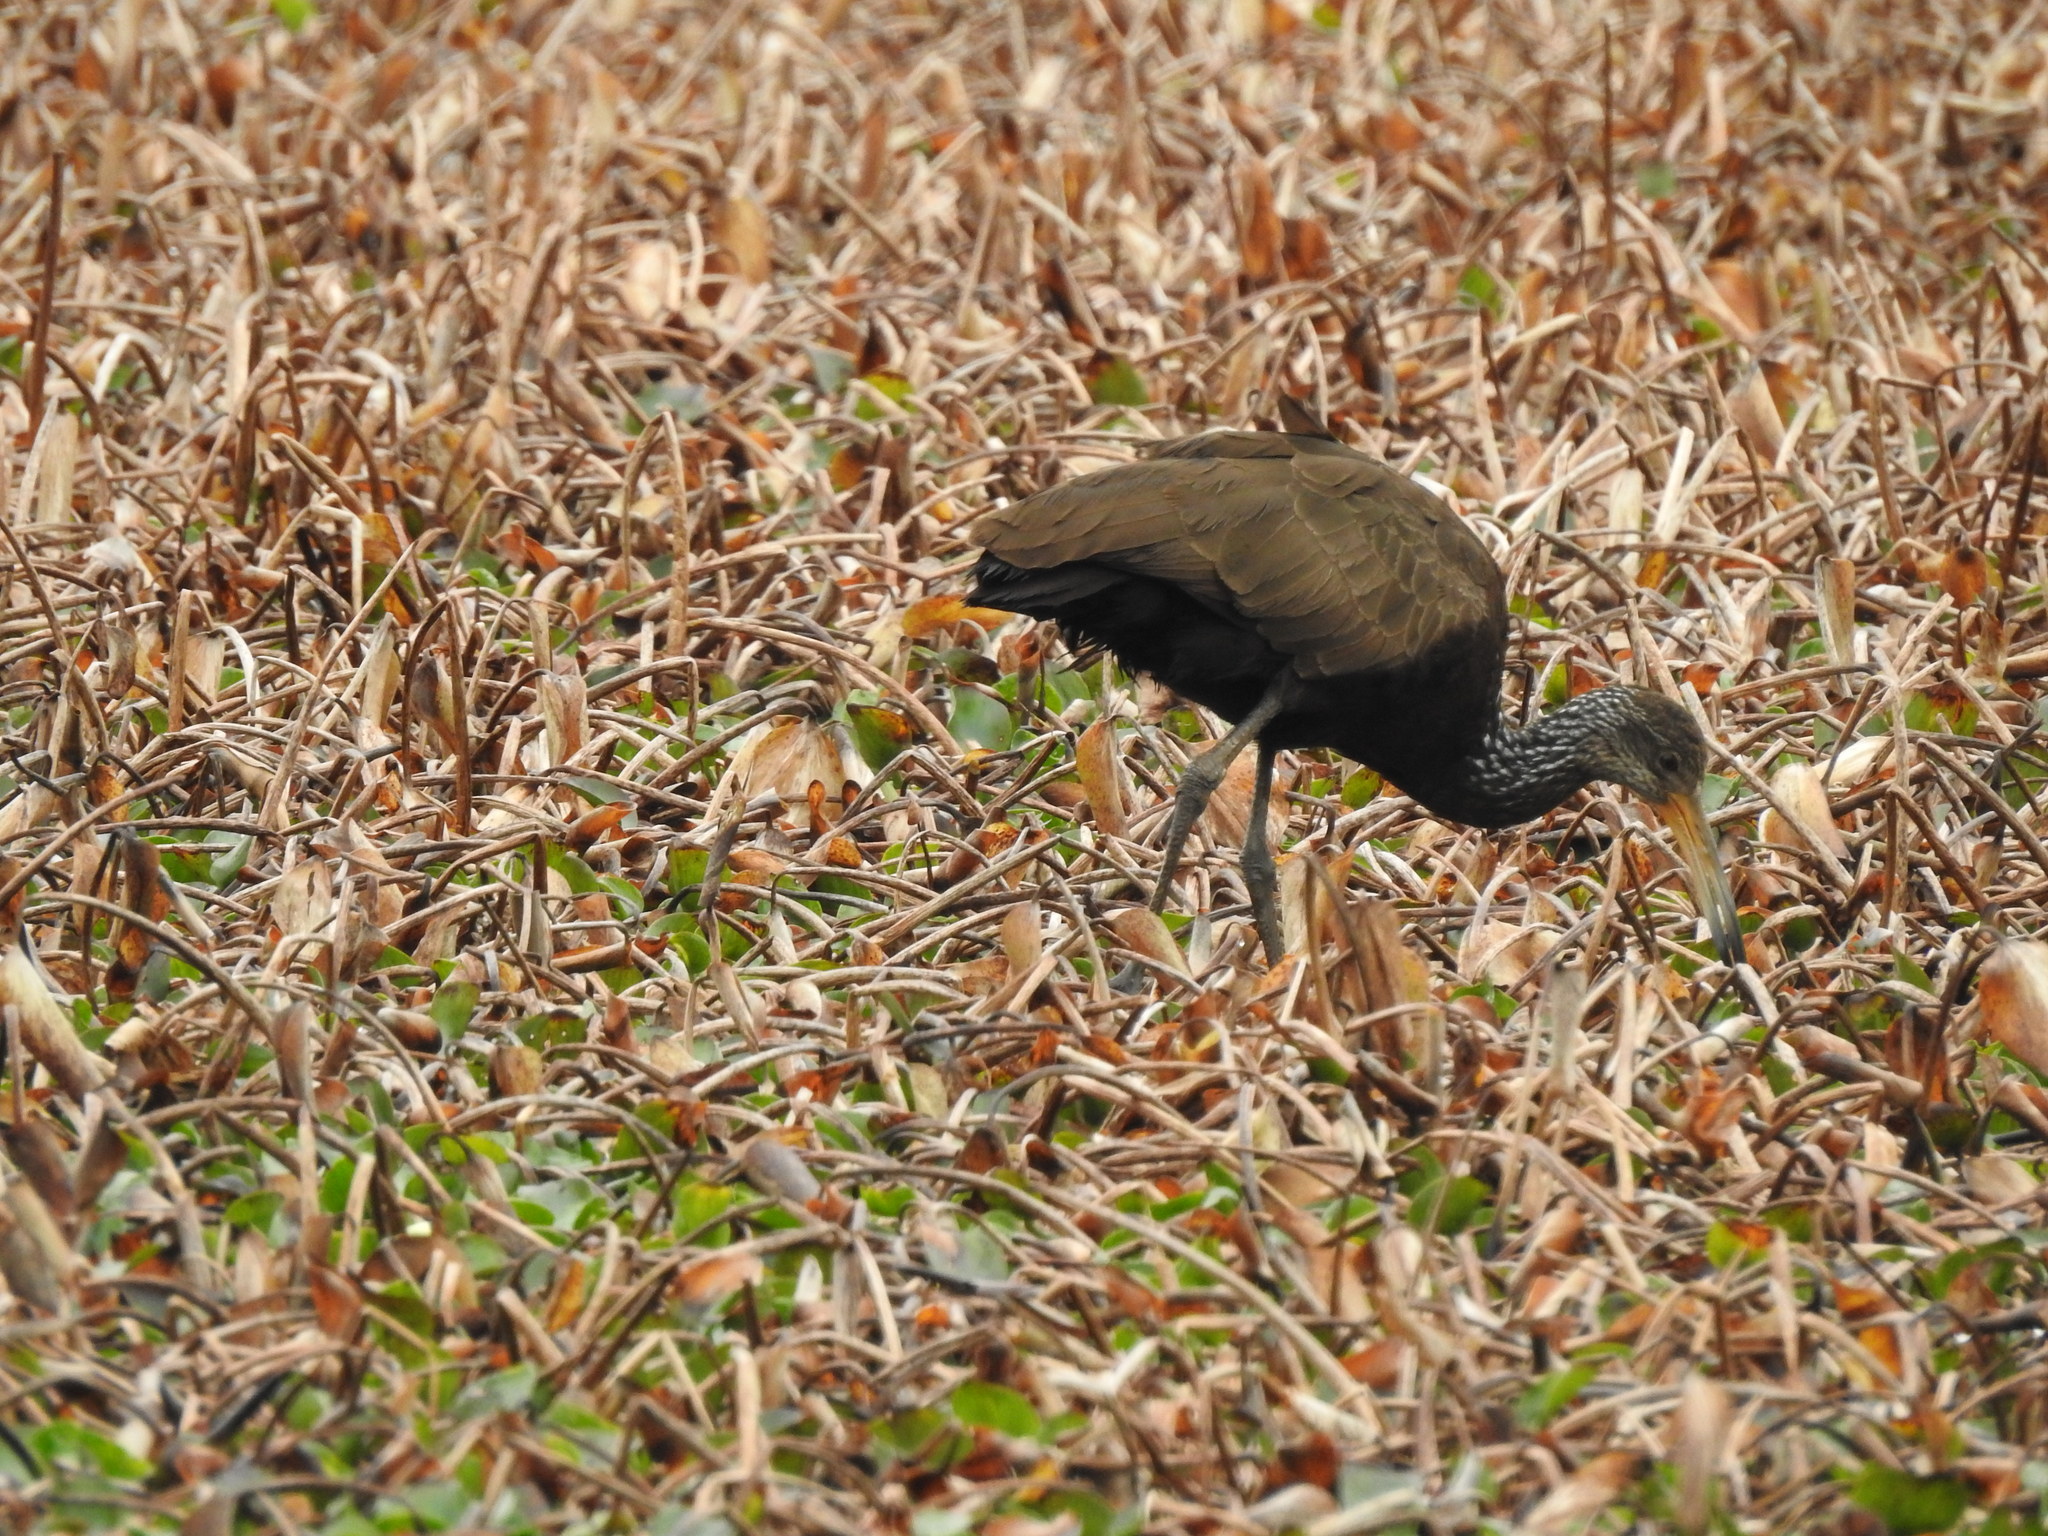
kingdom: Animalia
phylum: Chordata
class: Aves
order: Gruiformes
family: Aramidae
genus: Aramus
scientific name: Aramus guarauna
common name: Limpkin
